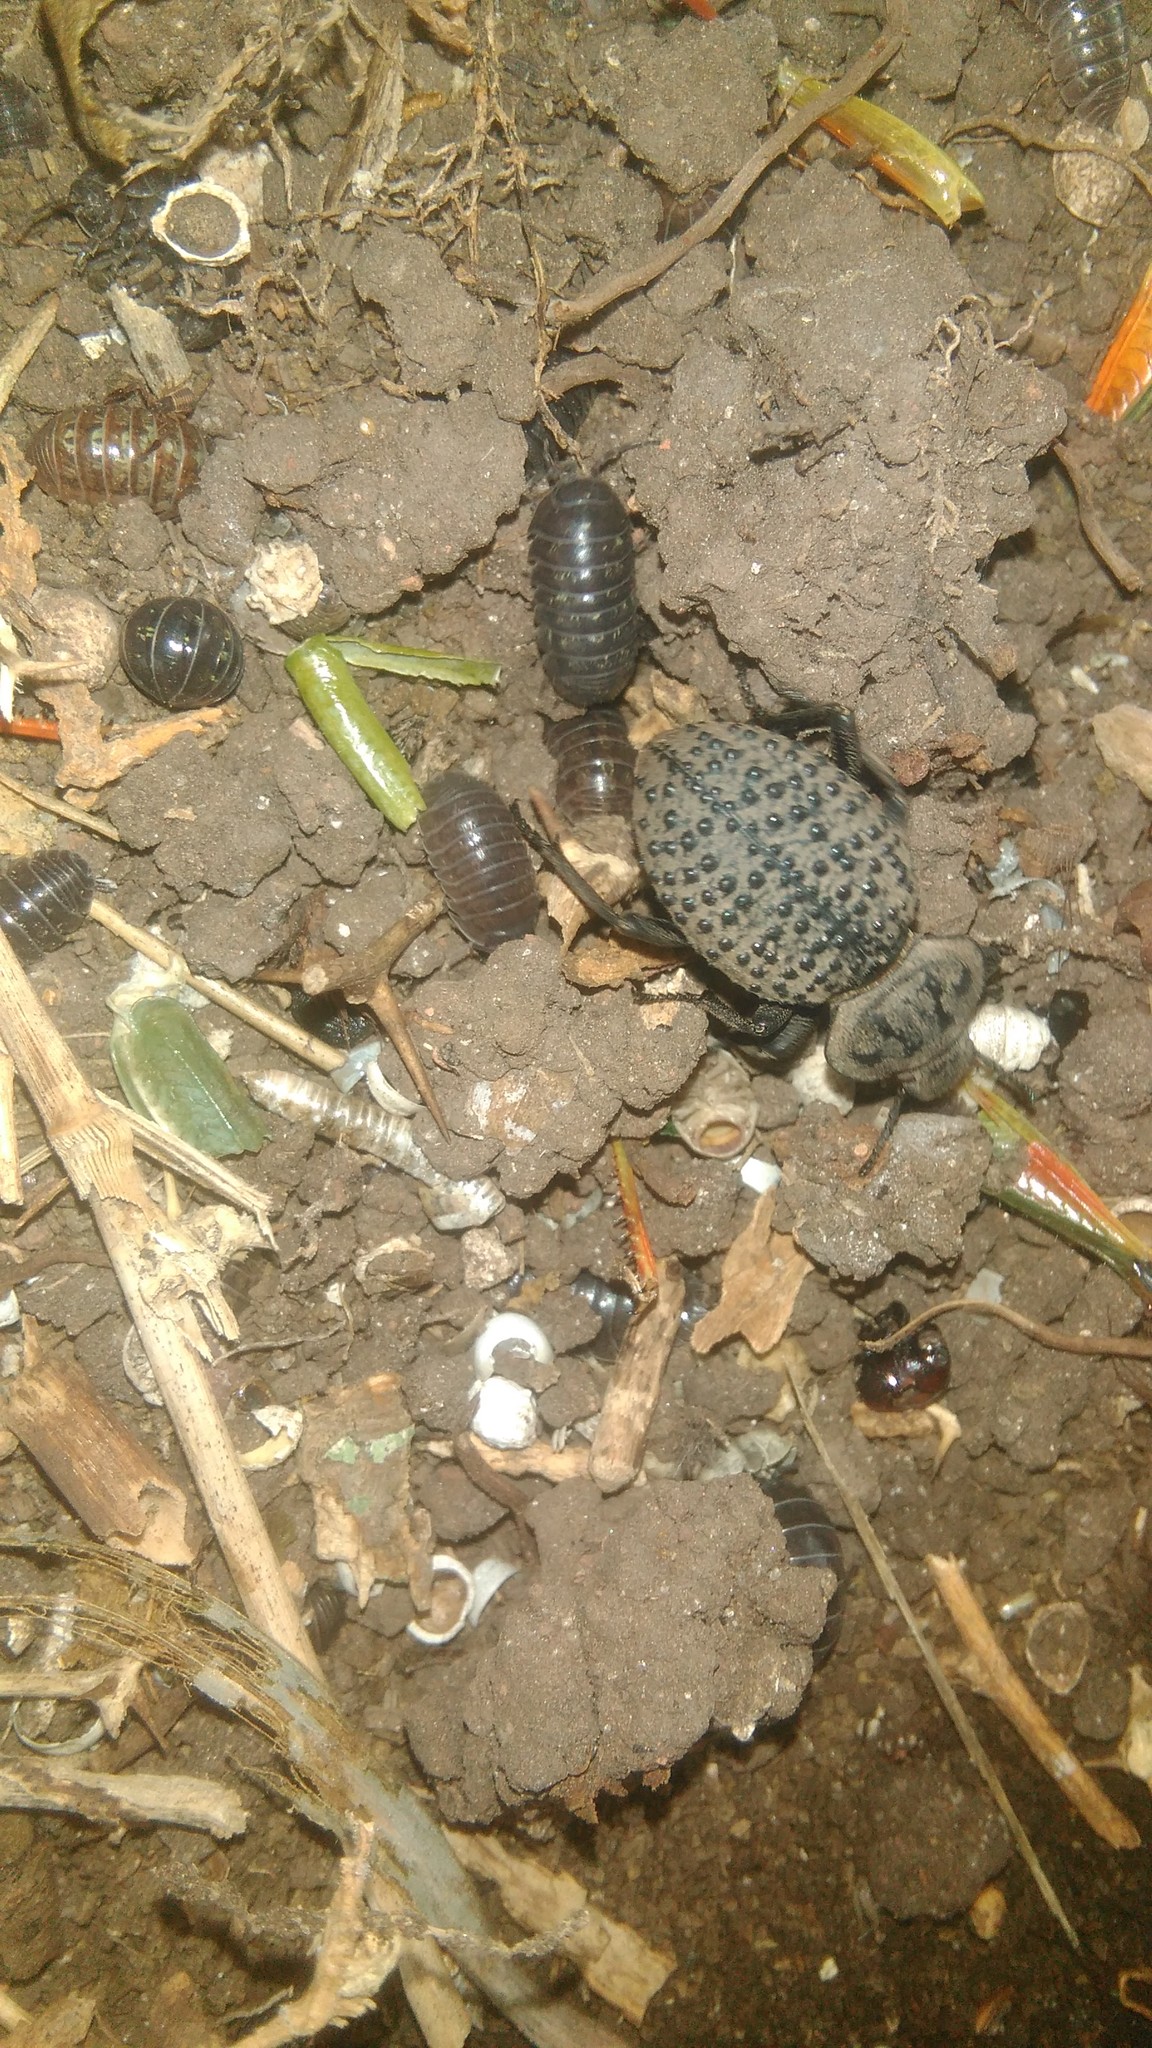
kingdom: Animalia
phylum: Arthropoda
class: Insecta
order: Coleoptera
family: Tenebrionidae
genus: Scotobius
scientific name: Scotobius pilularius
